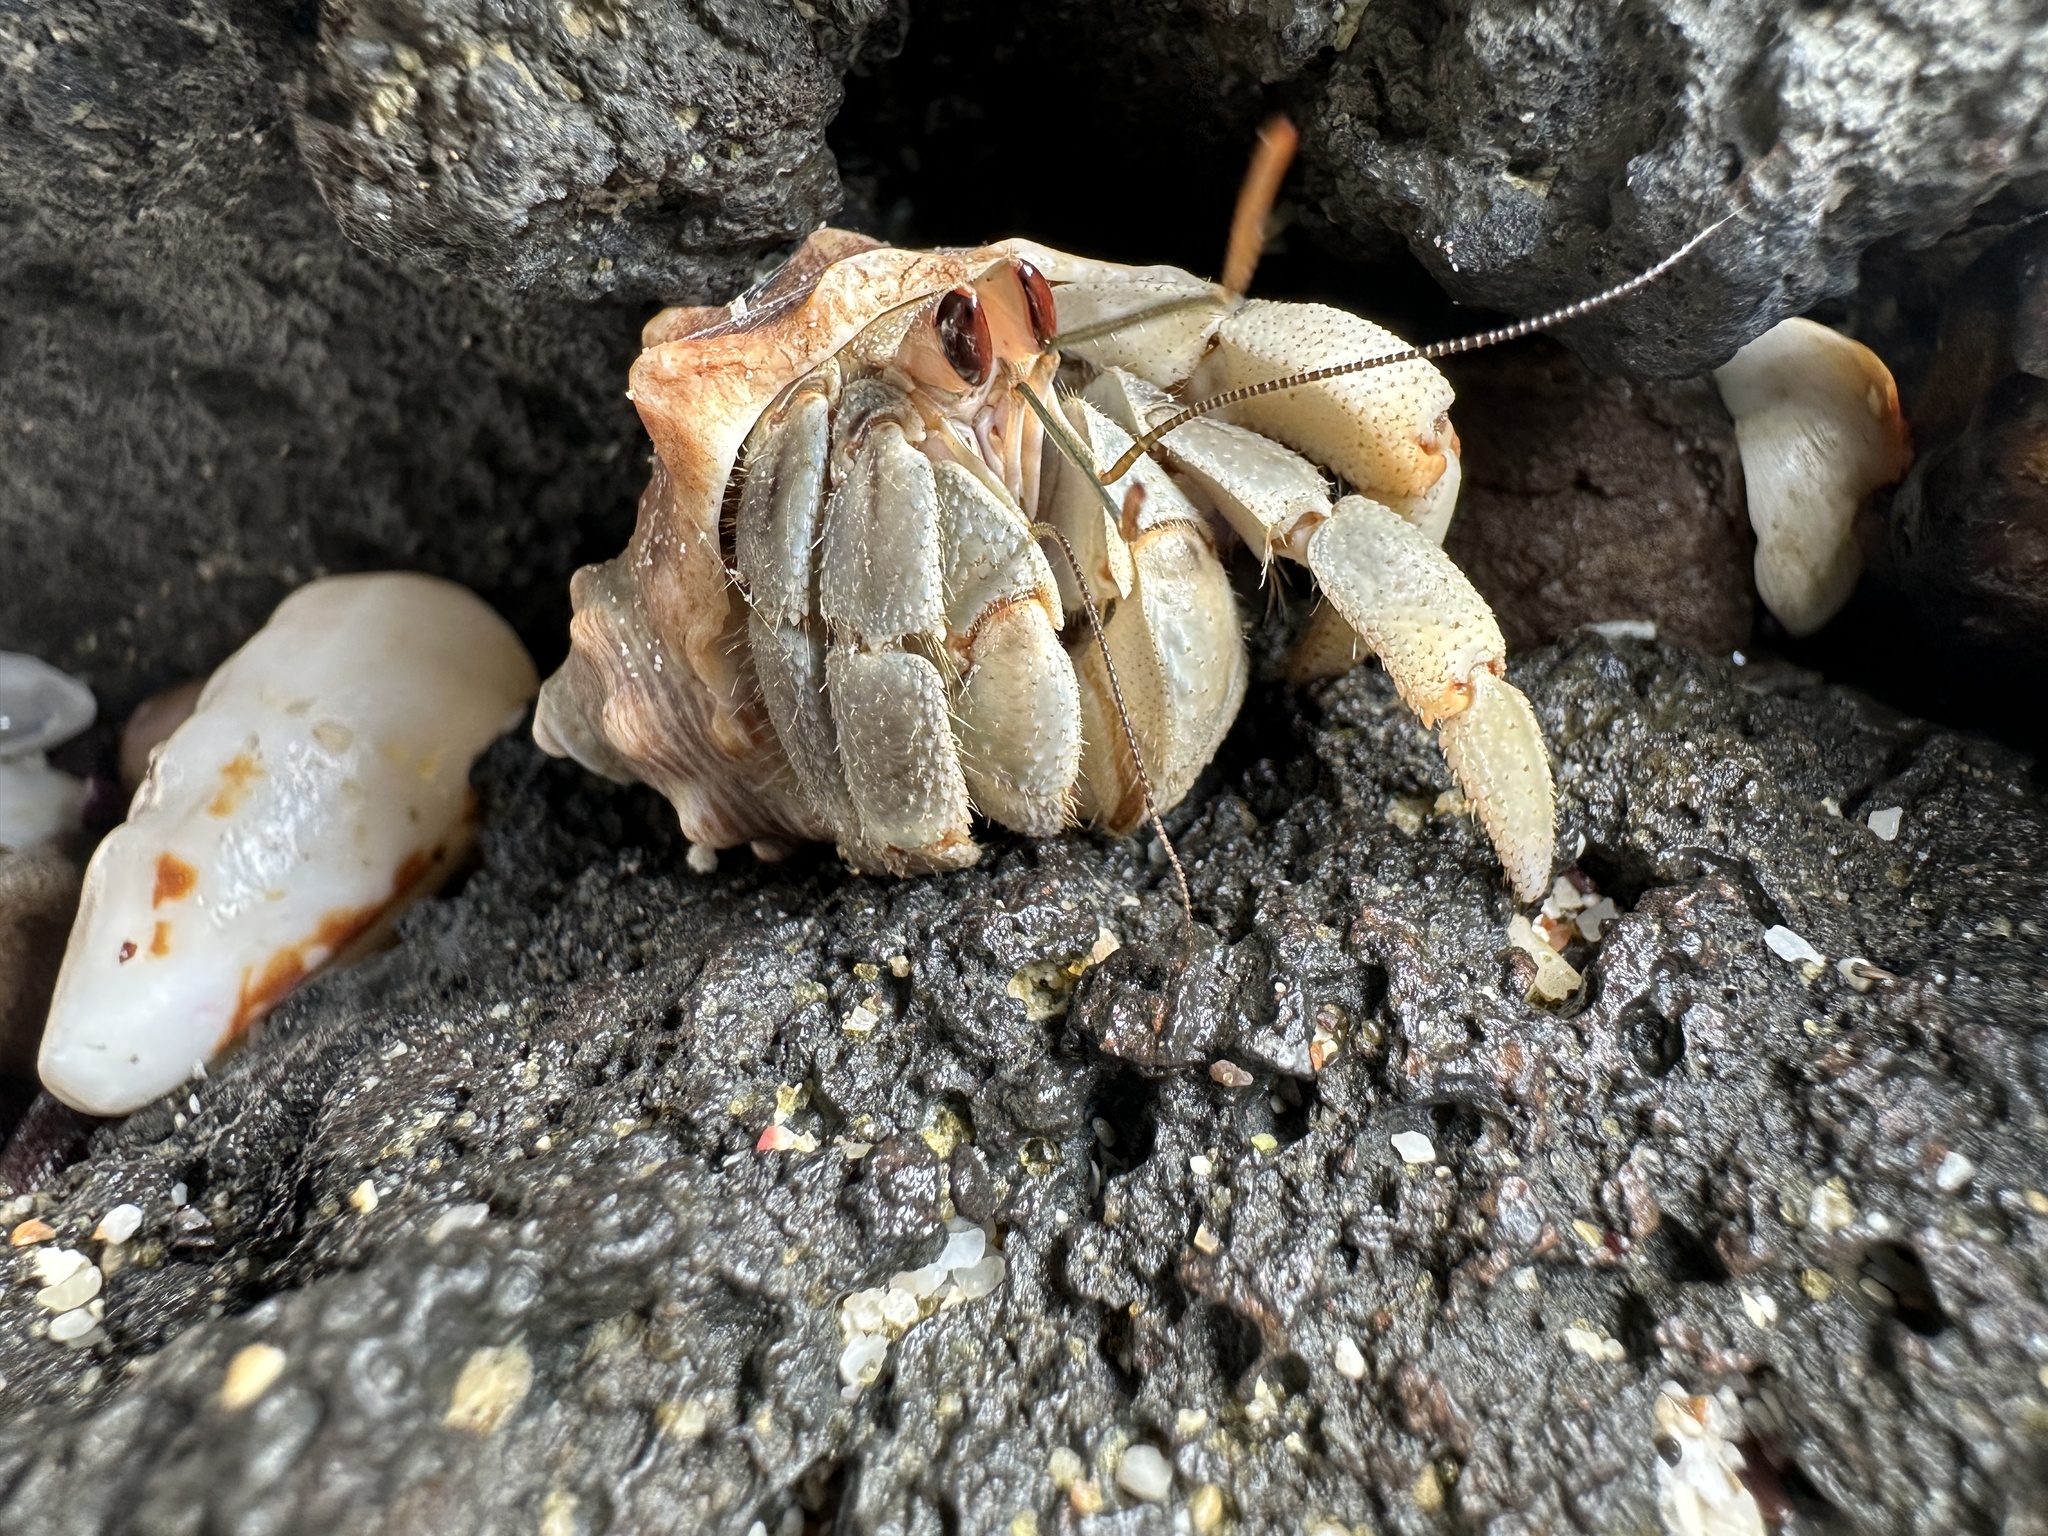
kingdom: Animalia
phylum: Arthropoda
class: Malacostraca
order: Decapoda
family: Coenobitidae
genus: Coenobita
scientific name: Coenobita compressus
